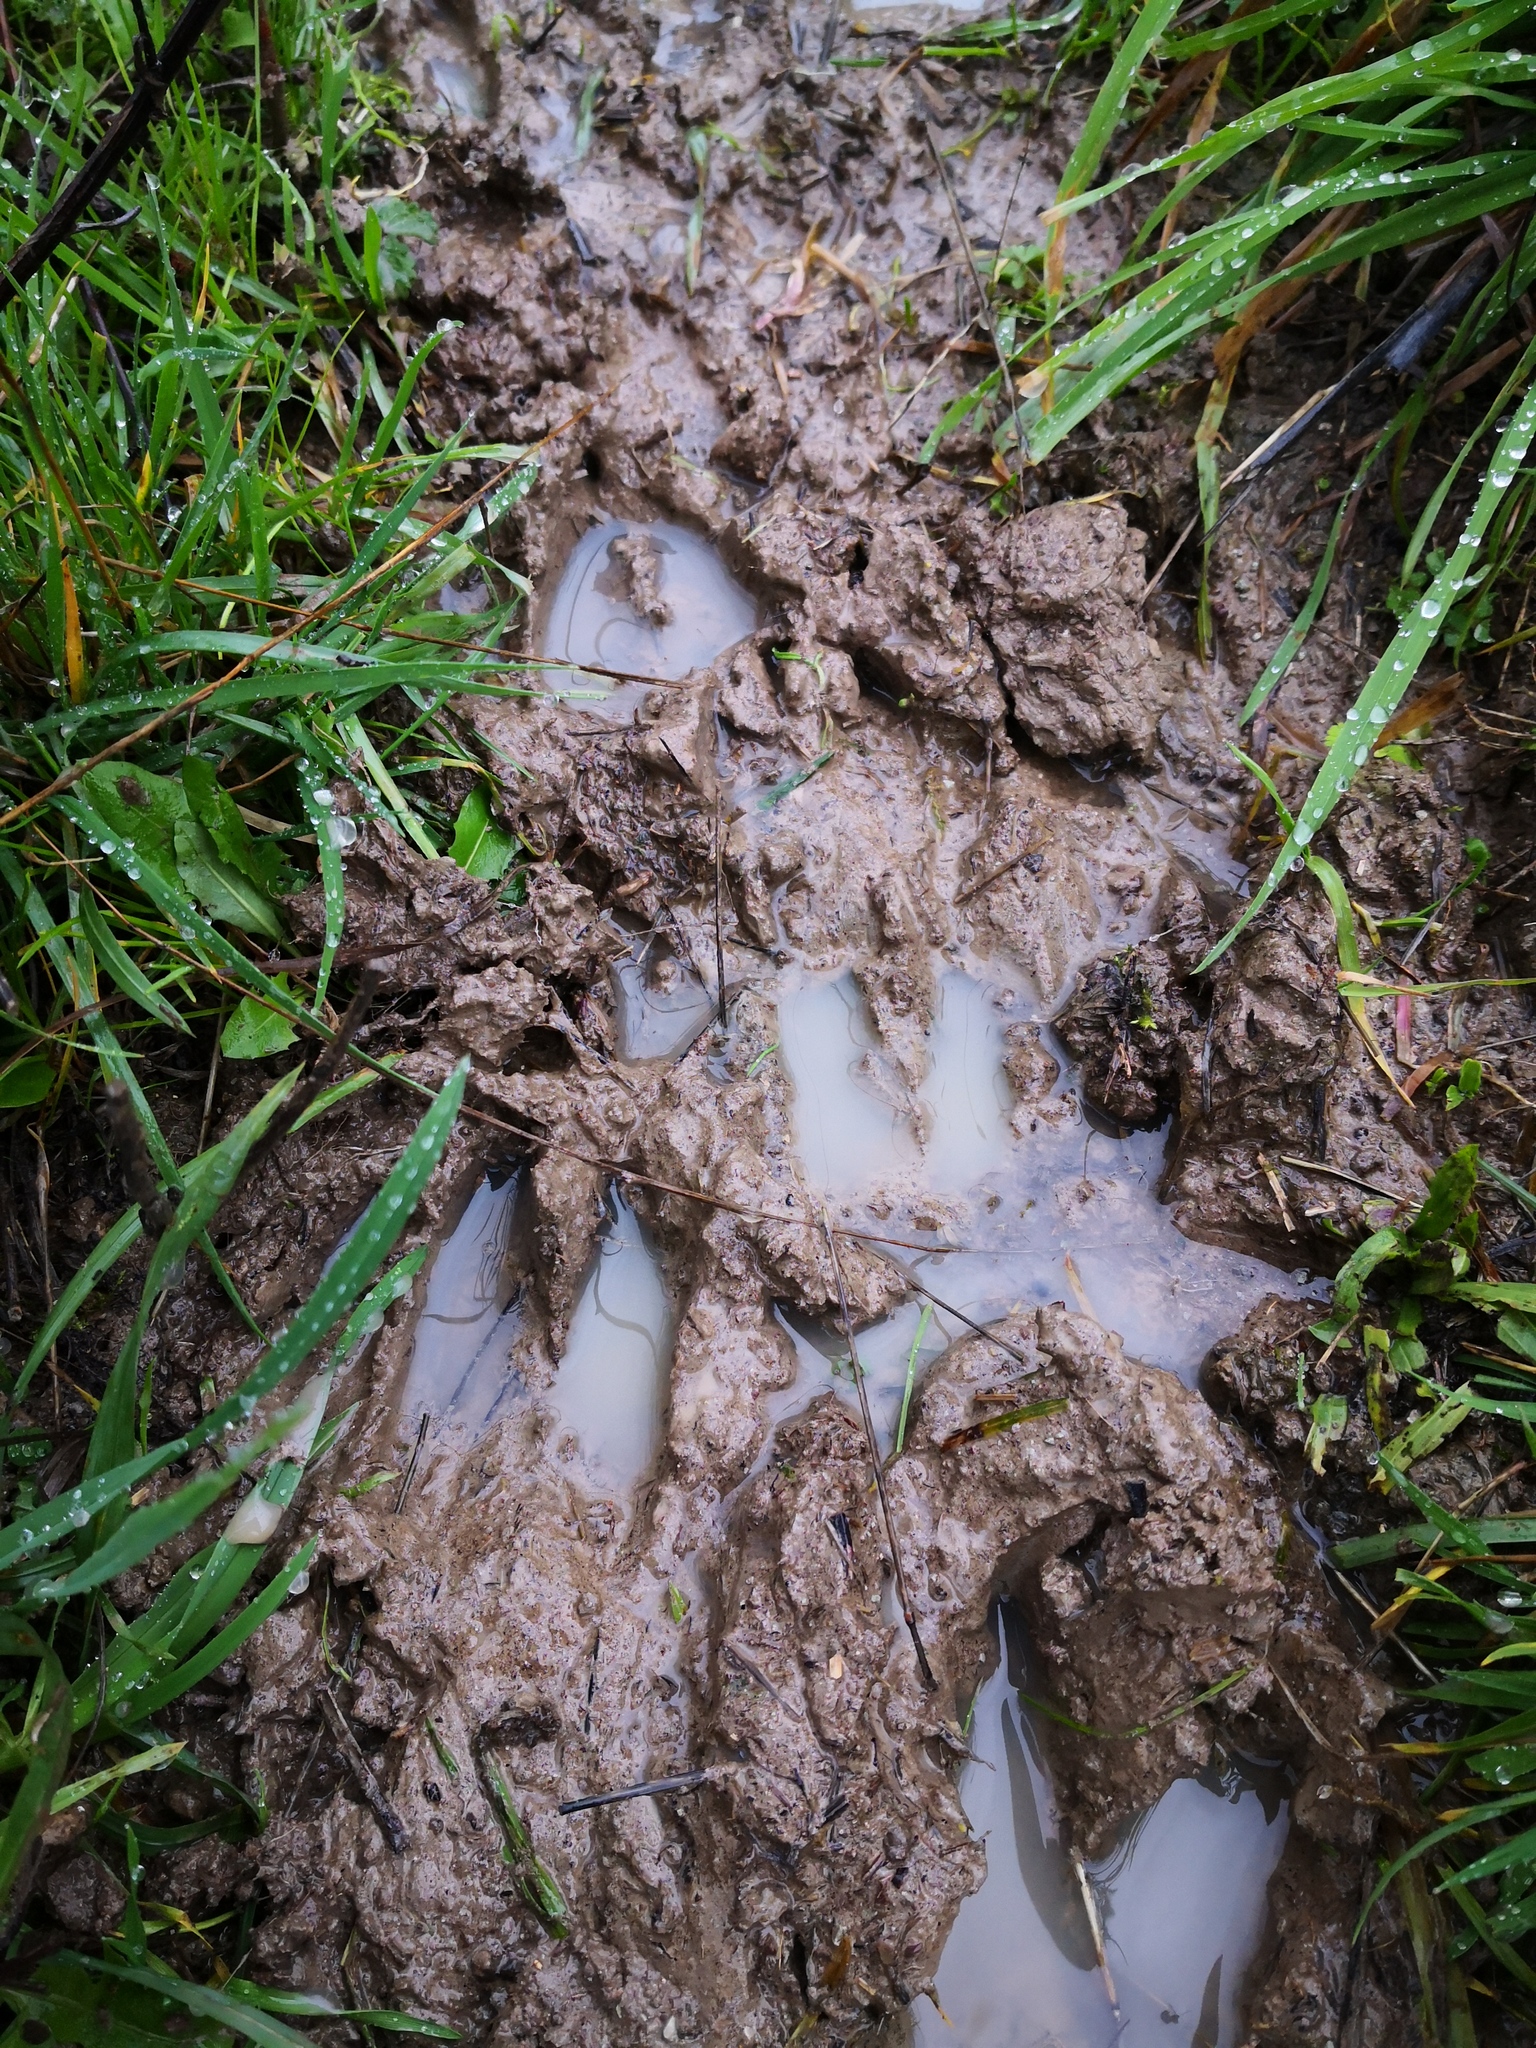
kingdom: Animalia
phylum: Chordata
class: Mammalia
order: Artiodactyla
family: Cervidae
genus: Capreolus
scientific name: Capreolus capreolus
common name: Western roe deer
